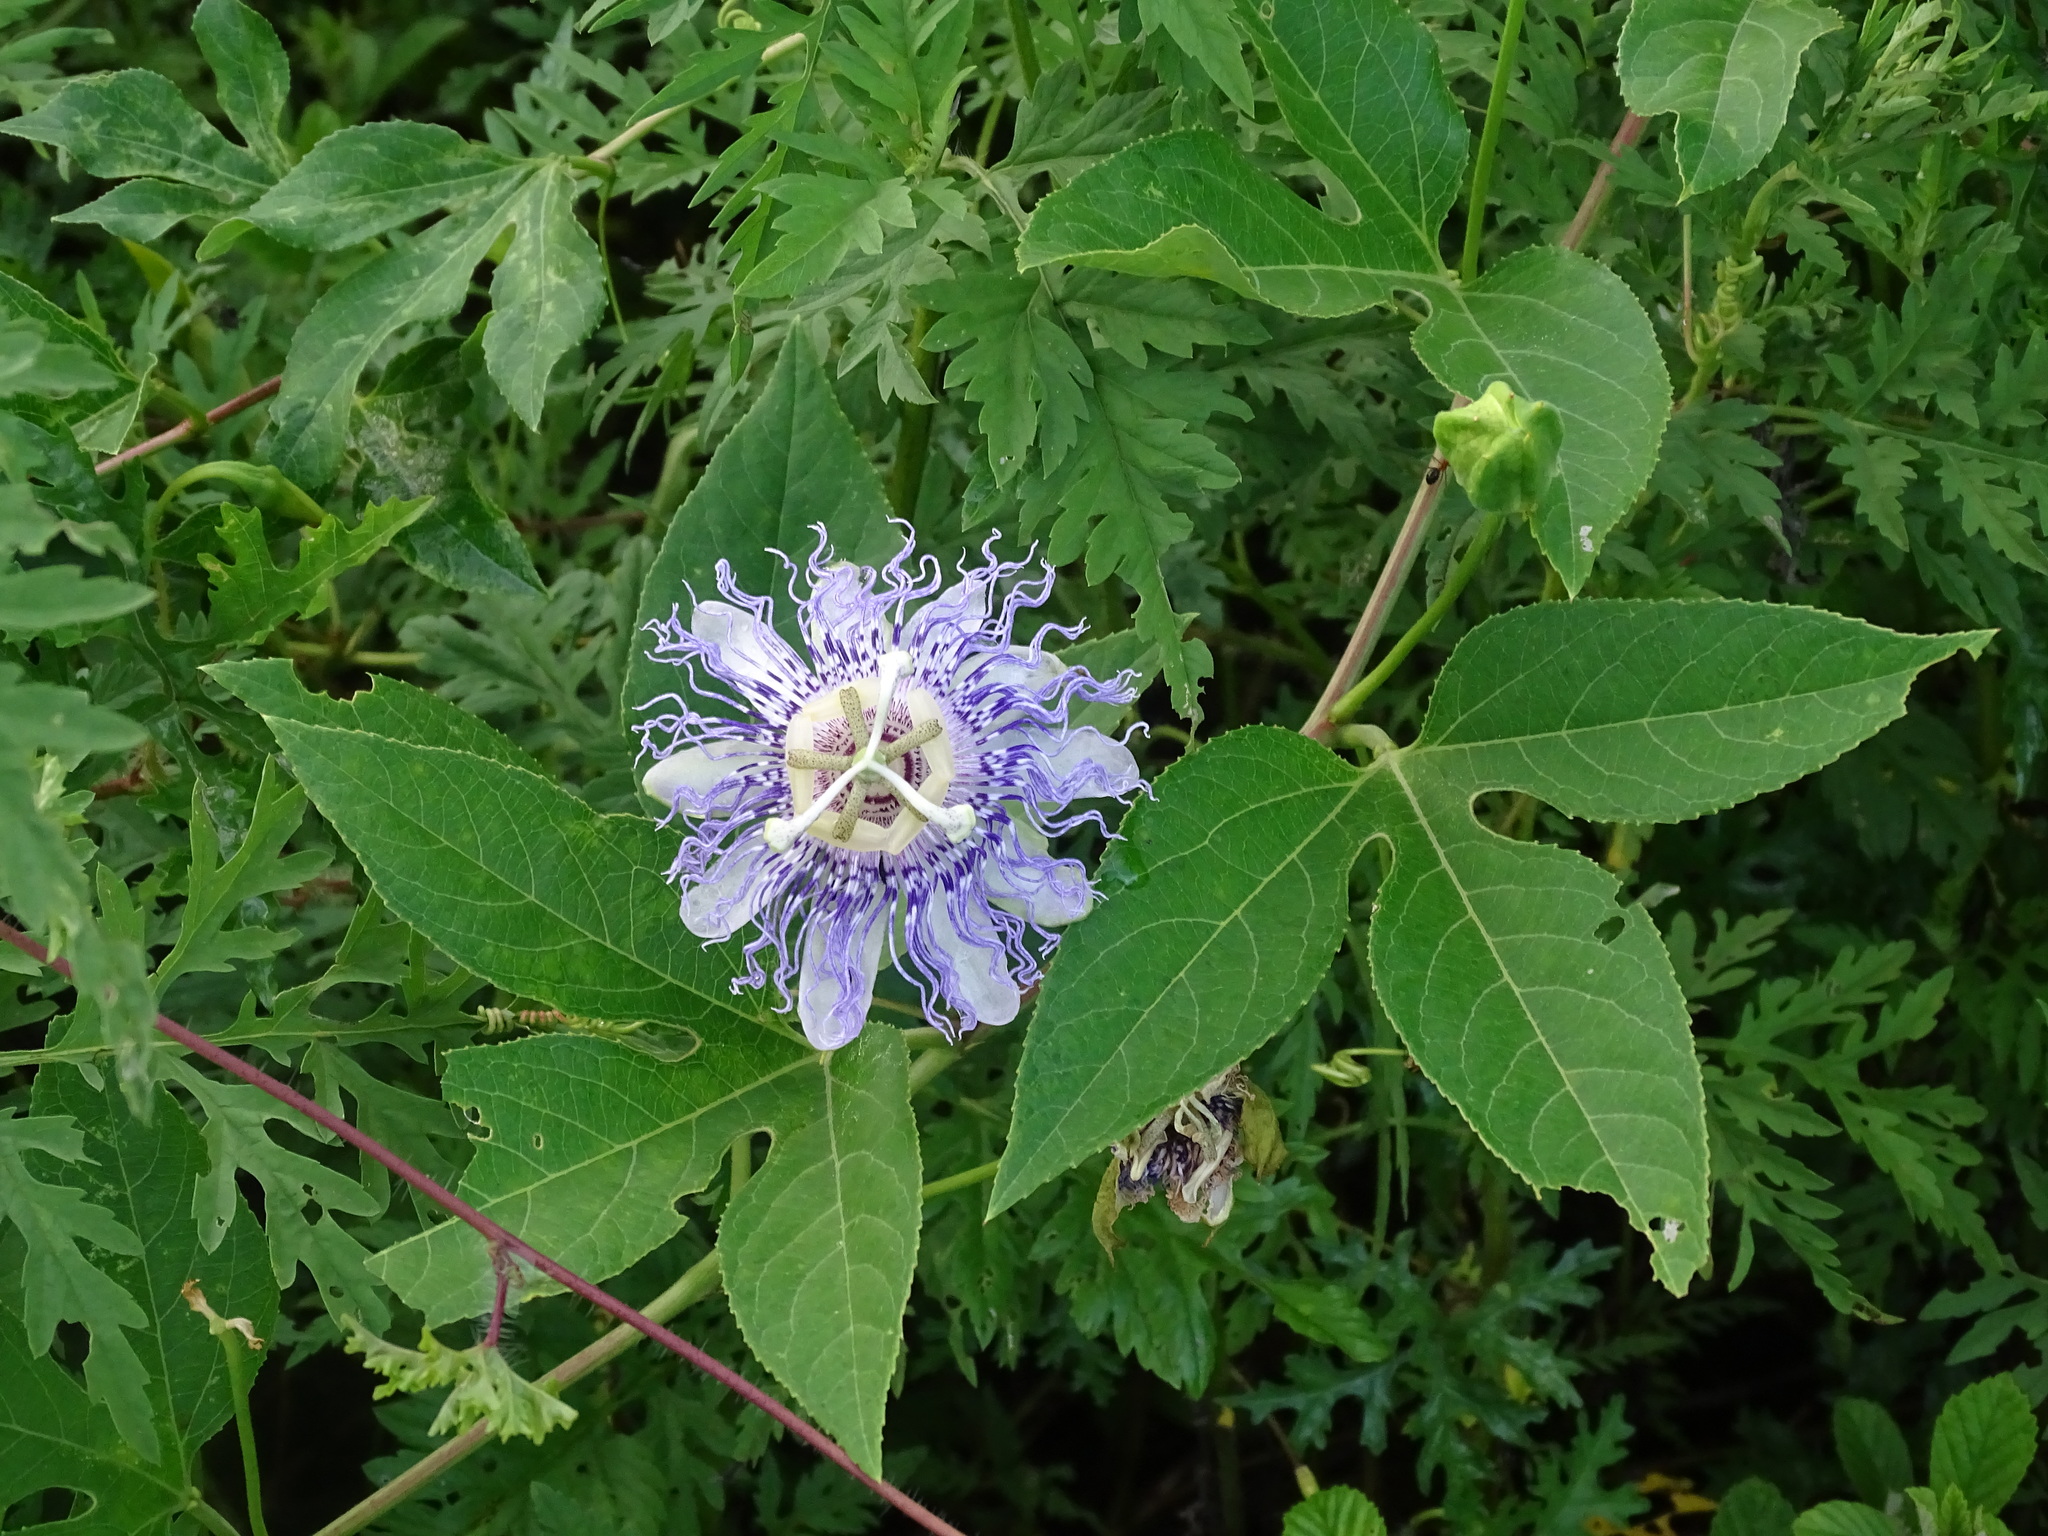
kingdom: Plantae
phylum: Tracheophyta
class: Magnoliopsida
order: Malpighiales
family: Passifloraceae
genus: Passiflora
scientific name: Passiflora incarnata
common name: Apricot-vine
